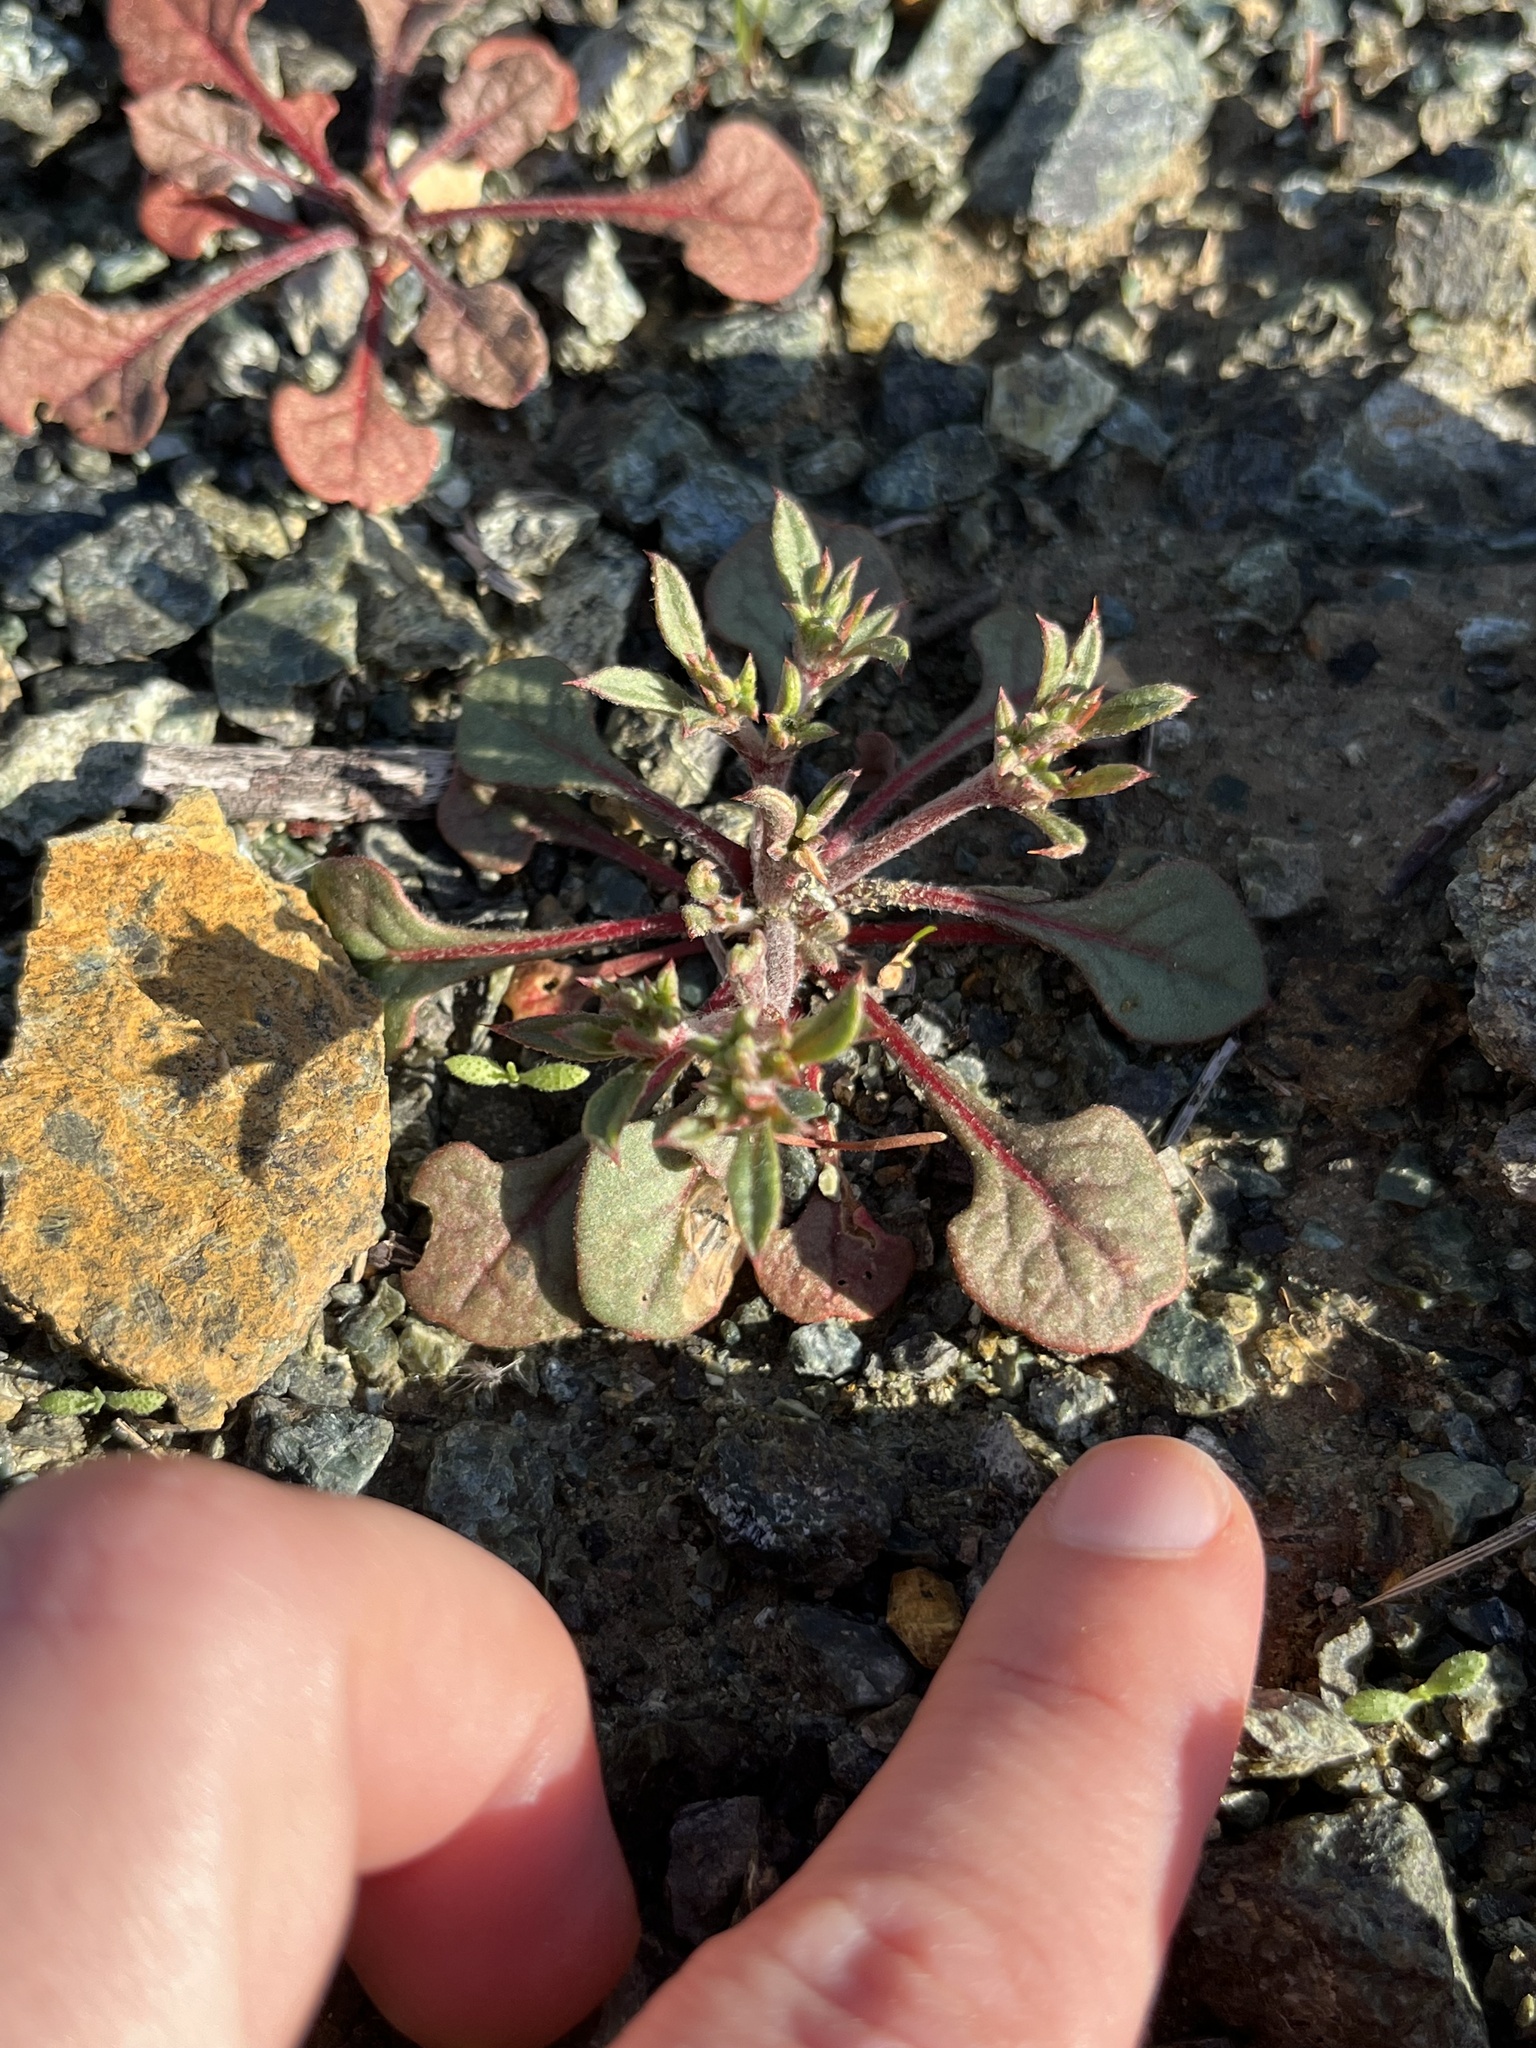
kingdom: Plantae
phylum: Tracheophyta
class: Magnoliopsida
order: Caryophyllales
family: Polygonaceae
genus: Chorizanthe
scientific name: Chorizanthe breweri
